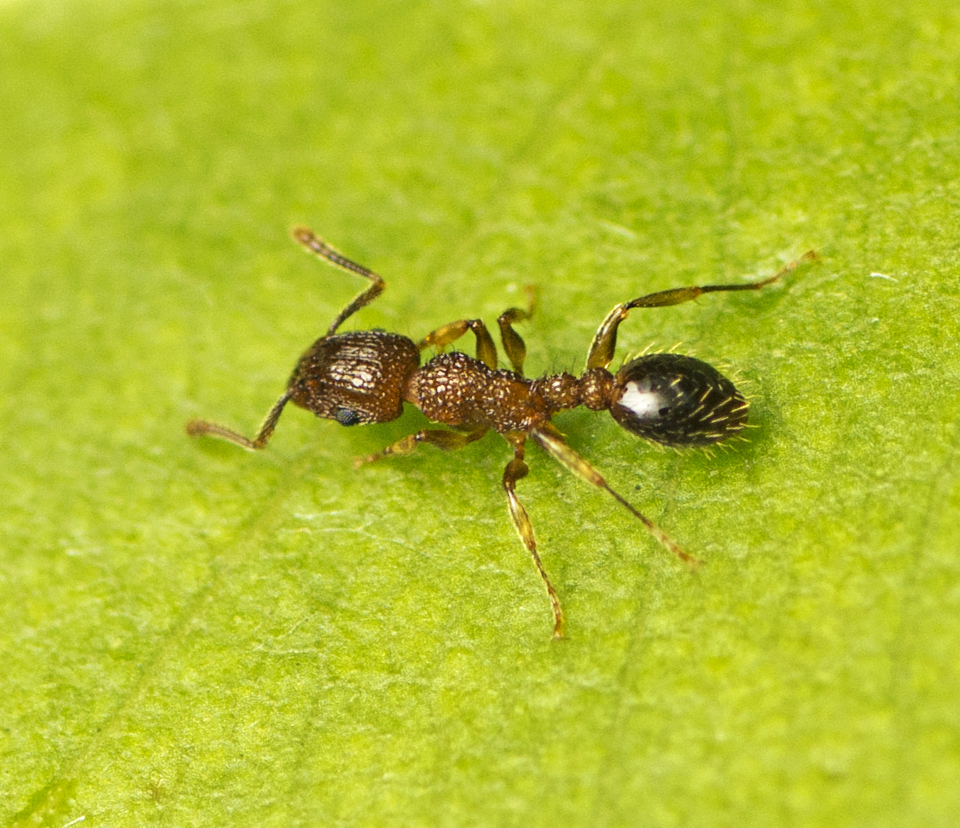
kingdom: Animalia
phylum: Arthropoda
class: Insecta
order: Hymenoptera
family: Formicidae
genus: Tetramorium
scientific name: Tetramorium bicarinatum
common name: Guinea ant
